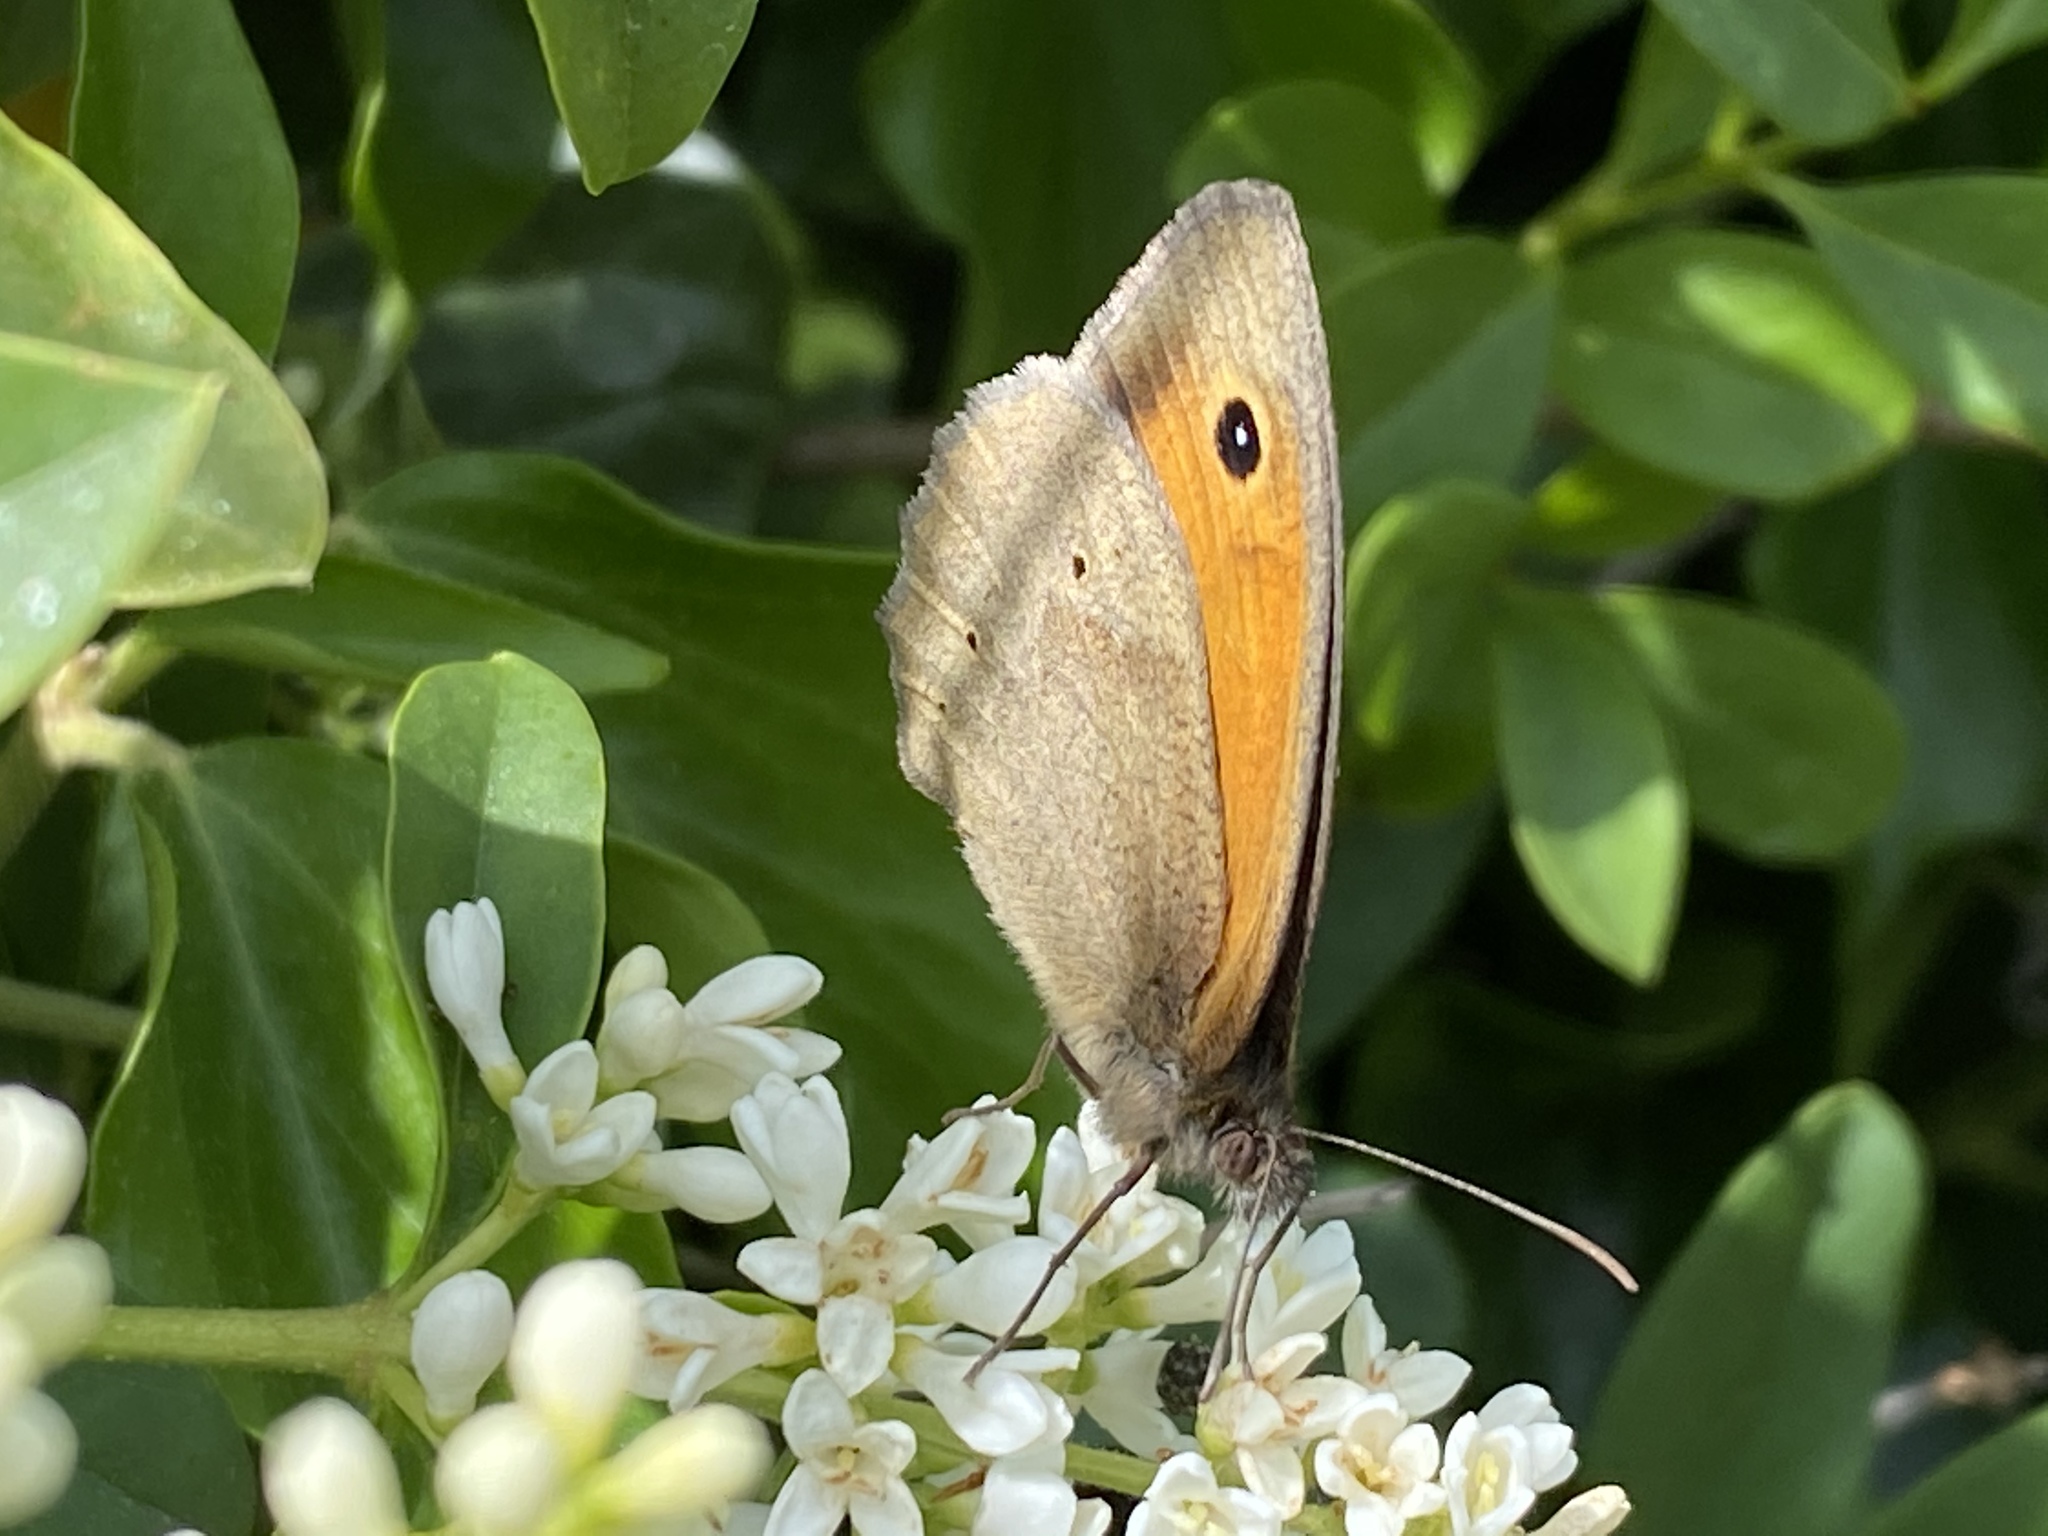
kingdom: Animalia
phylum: Arthropoda
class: Insecta
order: Lepidoptera
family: Nymphalidae
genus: Maniola
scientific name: Maniola jurtina
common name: Meadow brown
